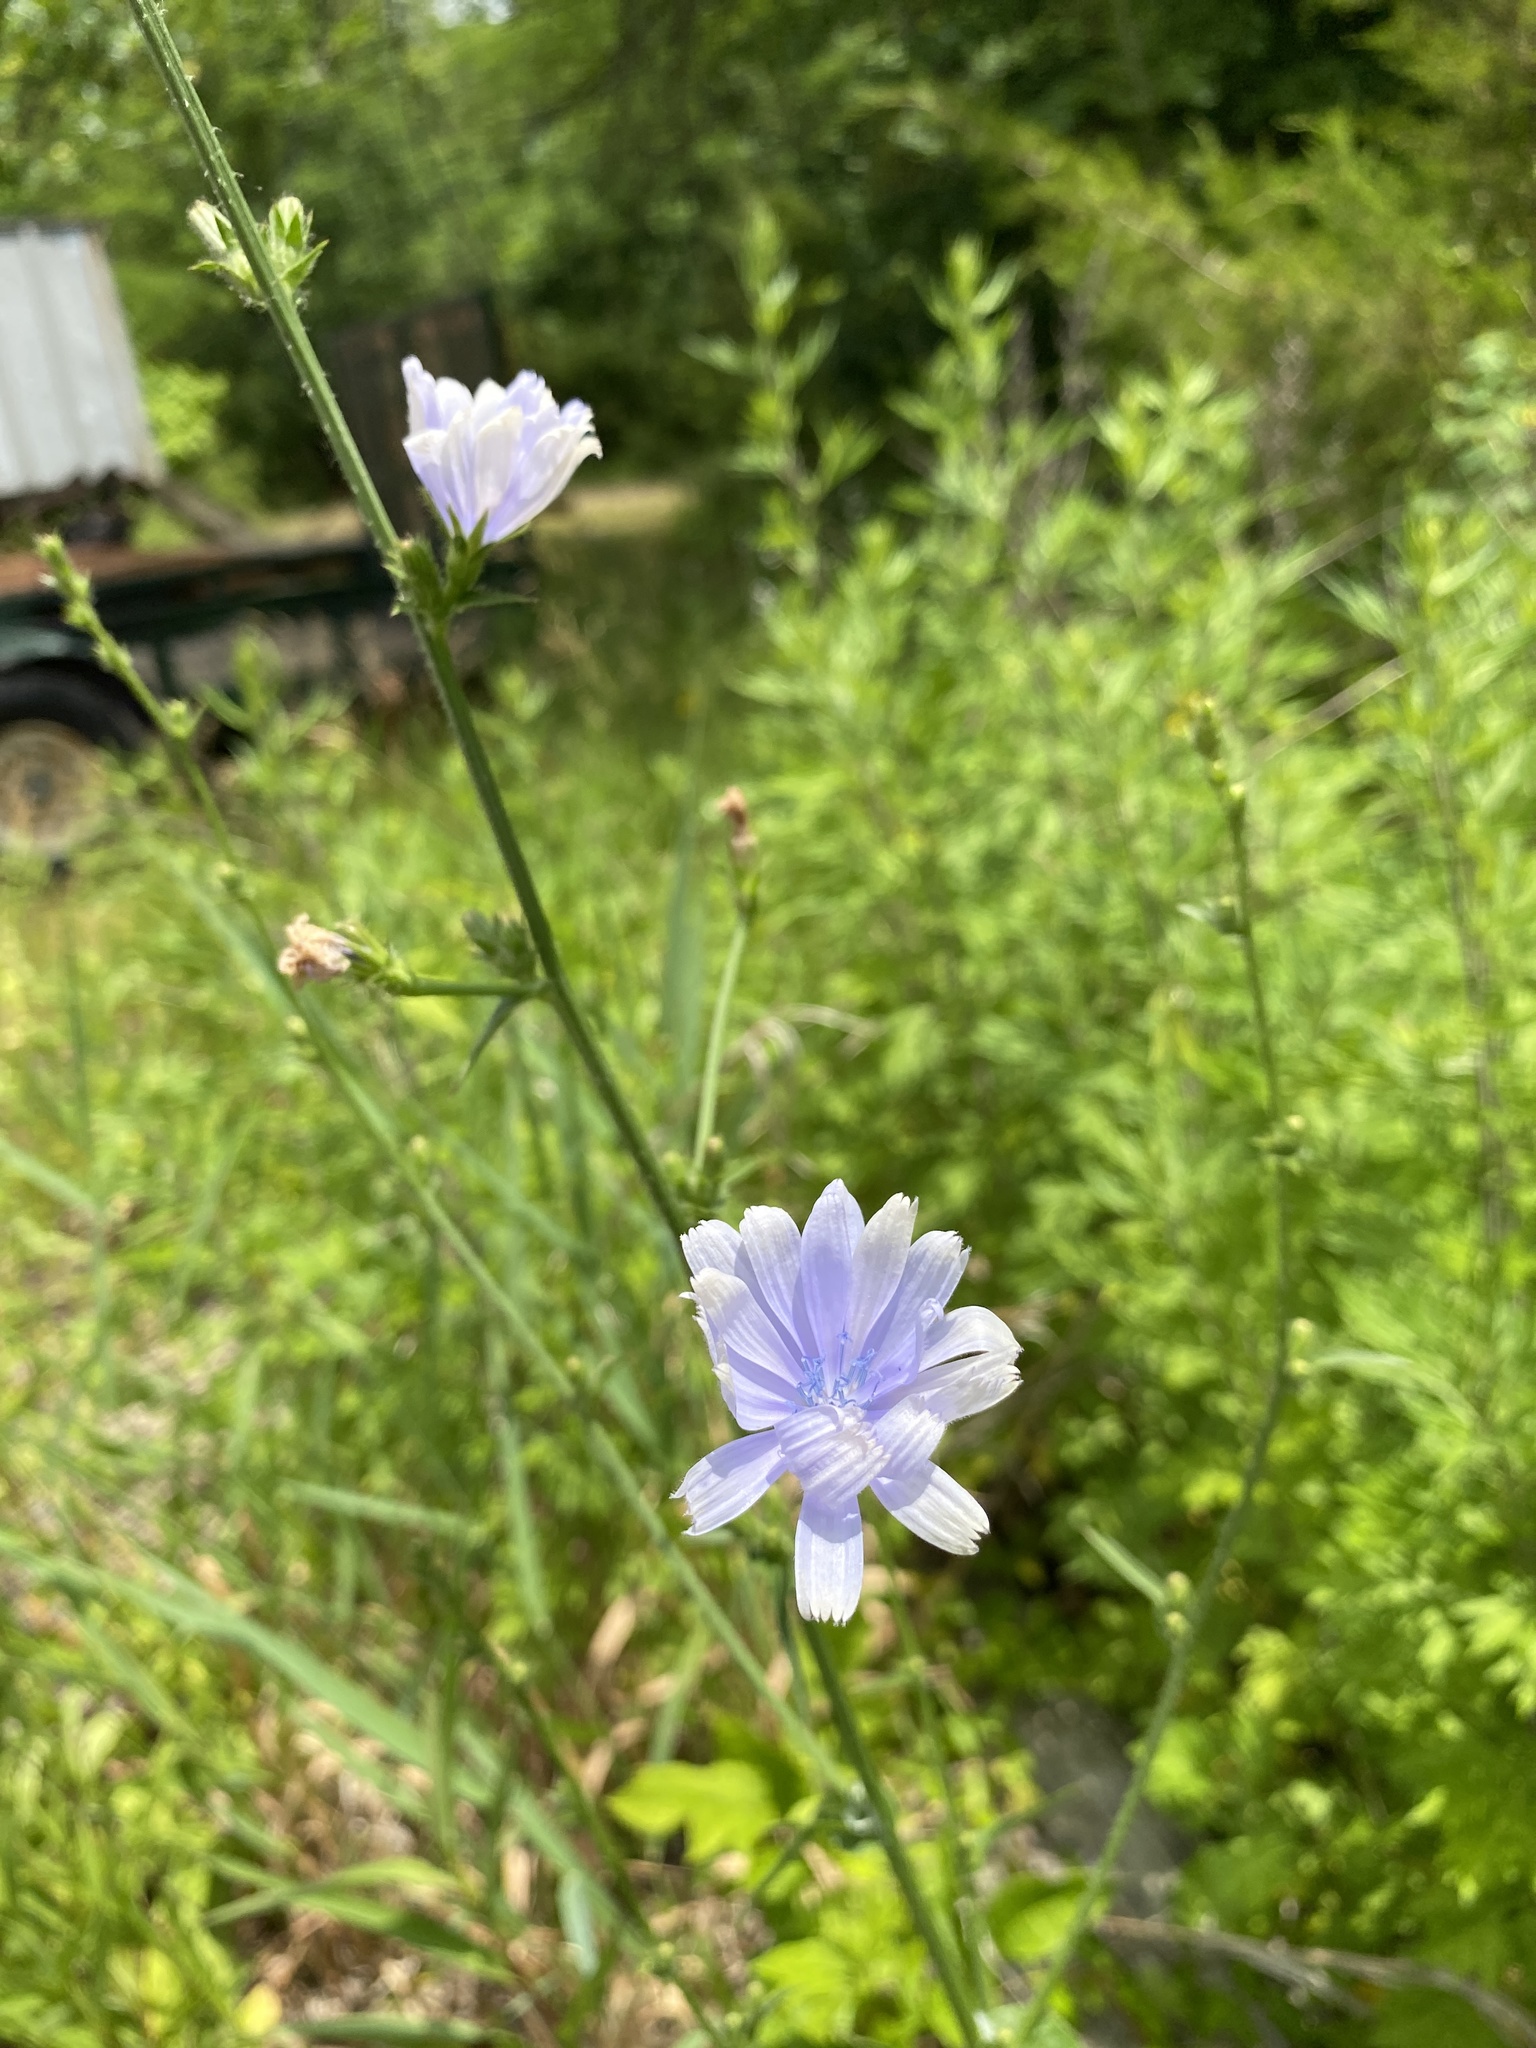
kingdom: Plantae
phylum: Tracheophyta
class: Magnoliopsida
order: Asterales
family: Asteraceae
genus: Cichorium
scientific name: Cichorium intybus
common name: Chicory
